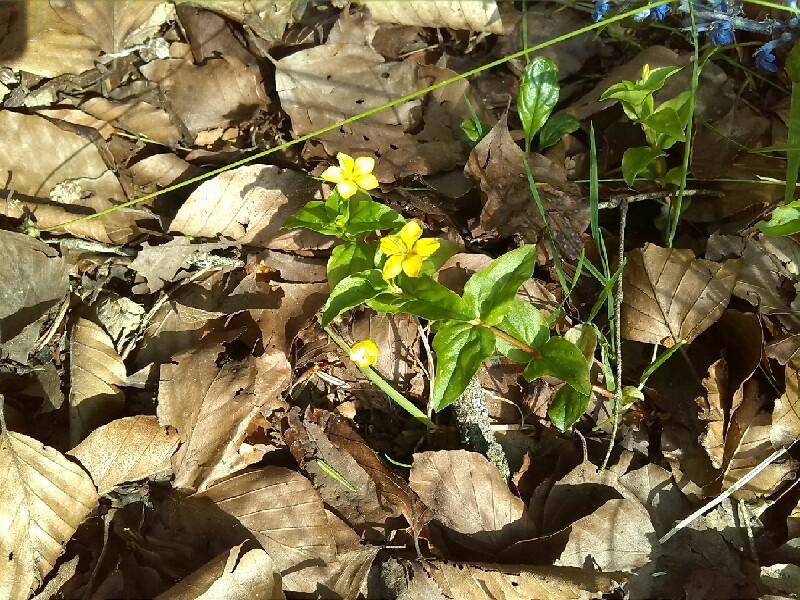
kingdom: Plantae
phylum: Tracheophyta
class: Magnoliopsida
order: Ericales
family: Primulaceae
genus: Lysimachia
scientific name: Lysimachia nemorum
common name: Yellow pimpernel
